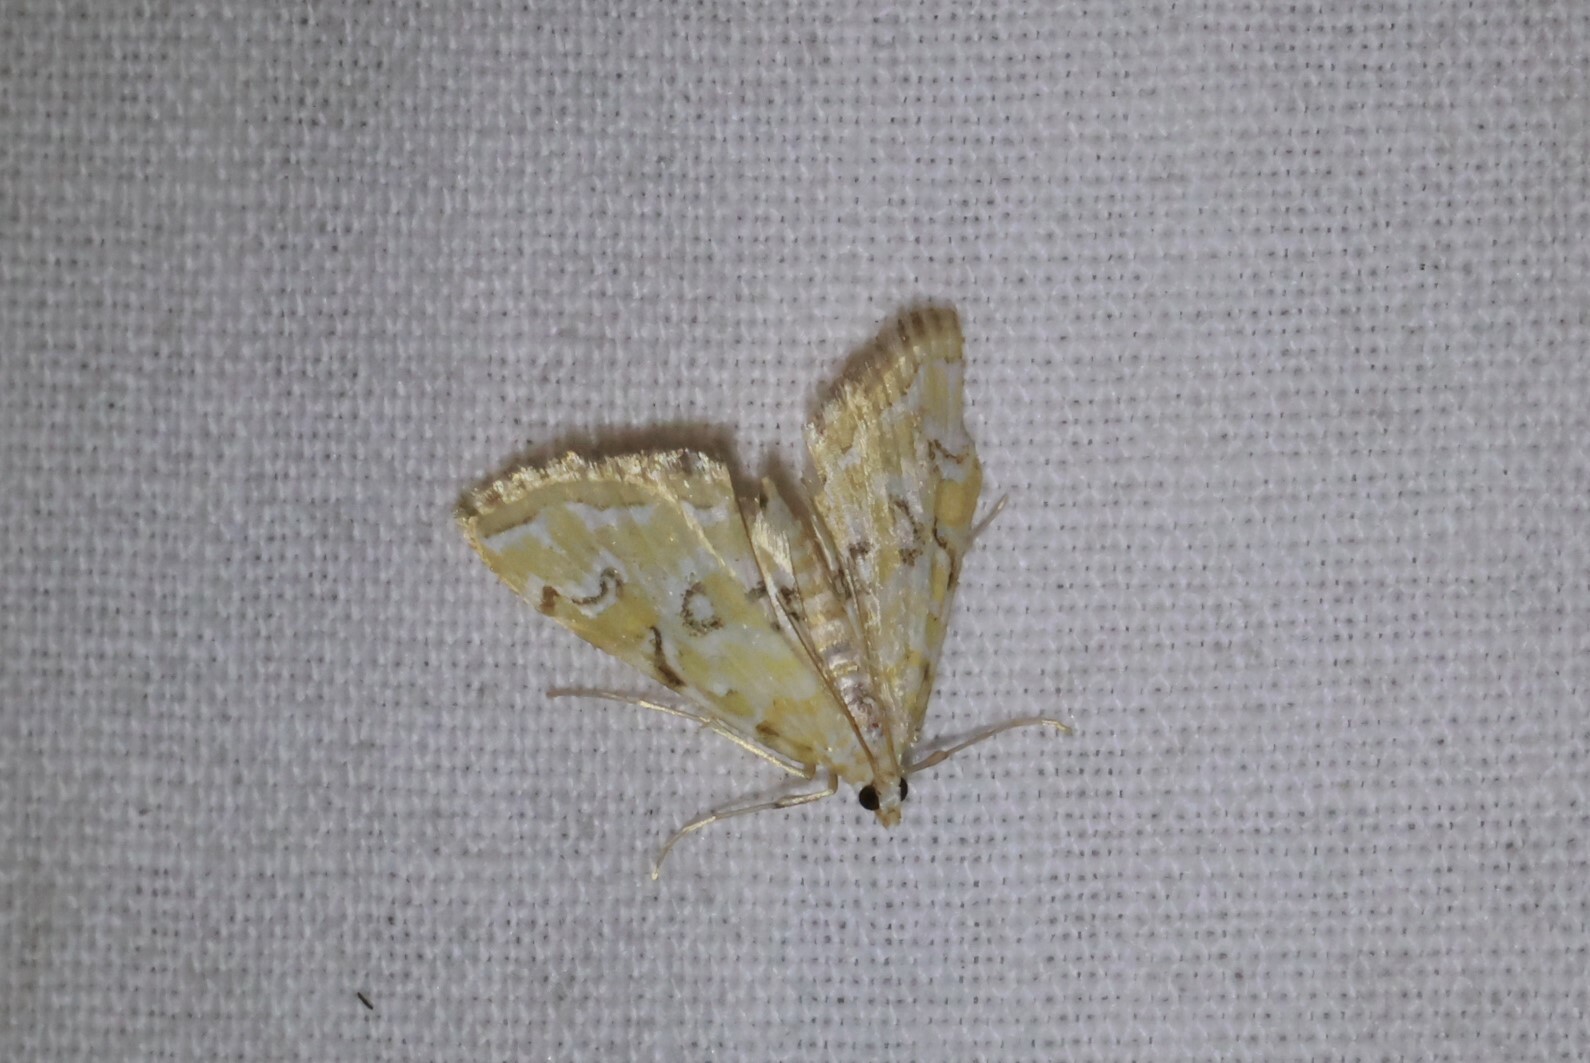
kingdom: Animalia
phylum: Arthropoda
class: Insecta
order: Lepidoptera
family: Crambidae
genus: Elophila
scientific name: Elophila icciusalis
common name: Pondside pyralid moth
